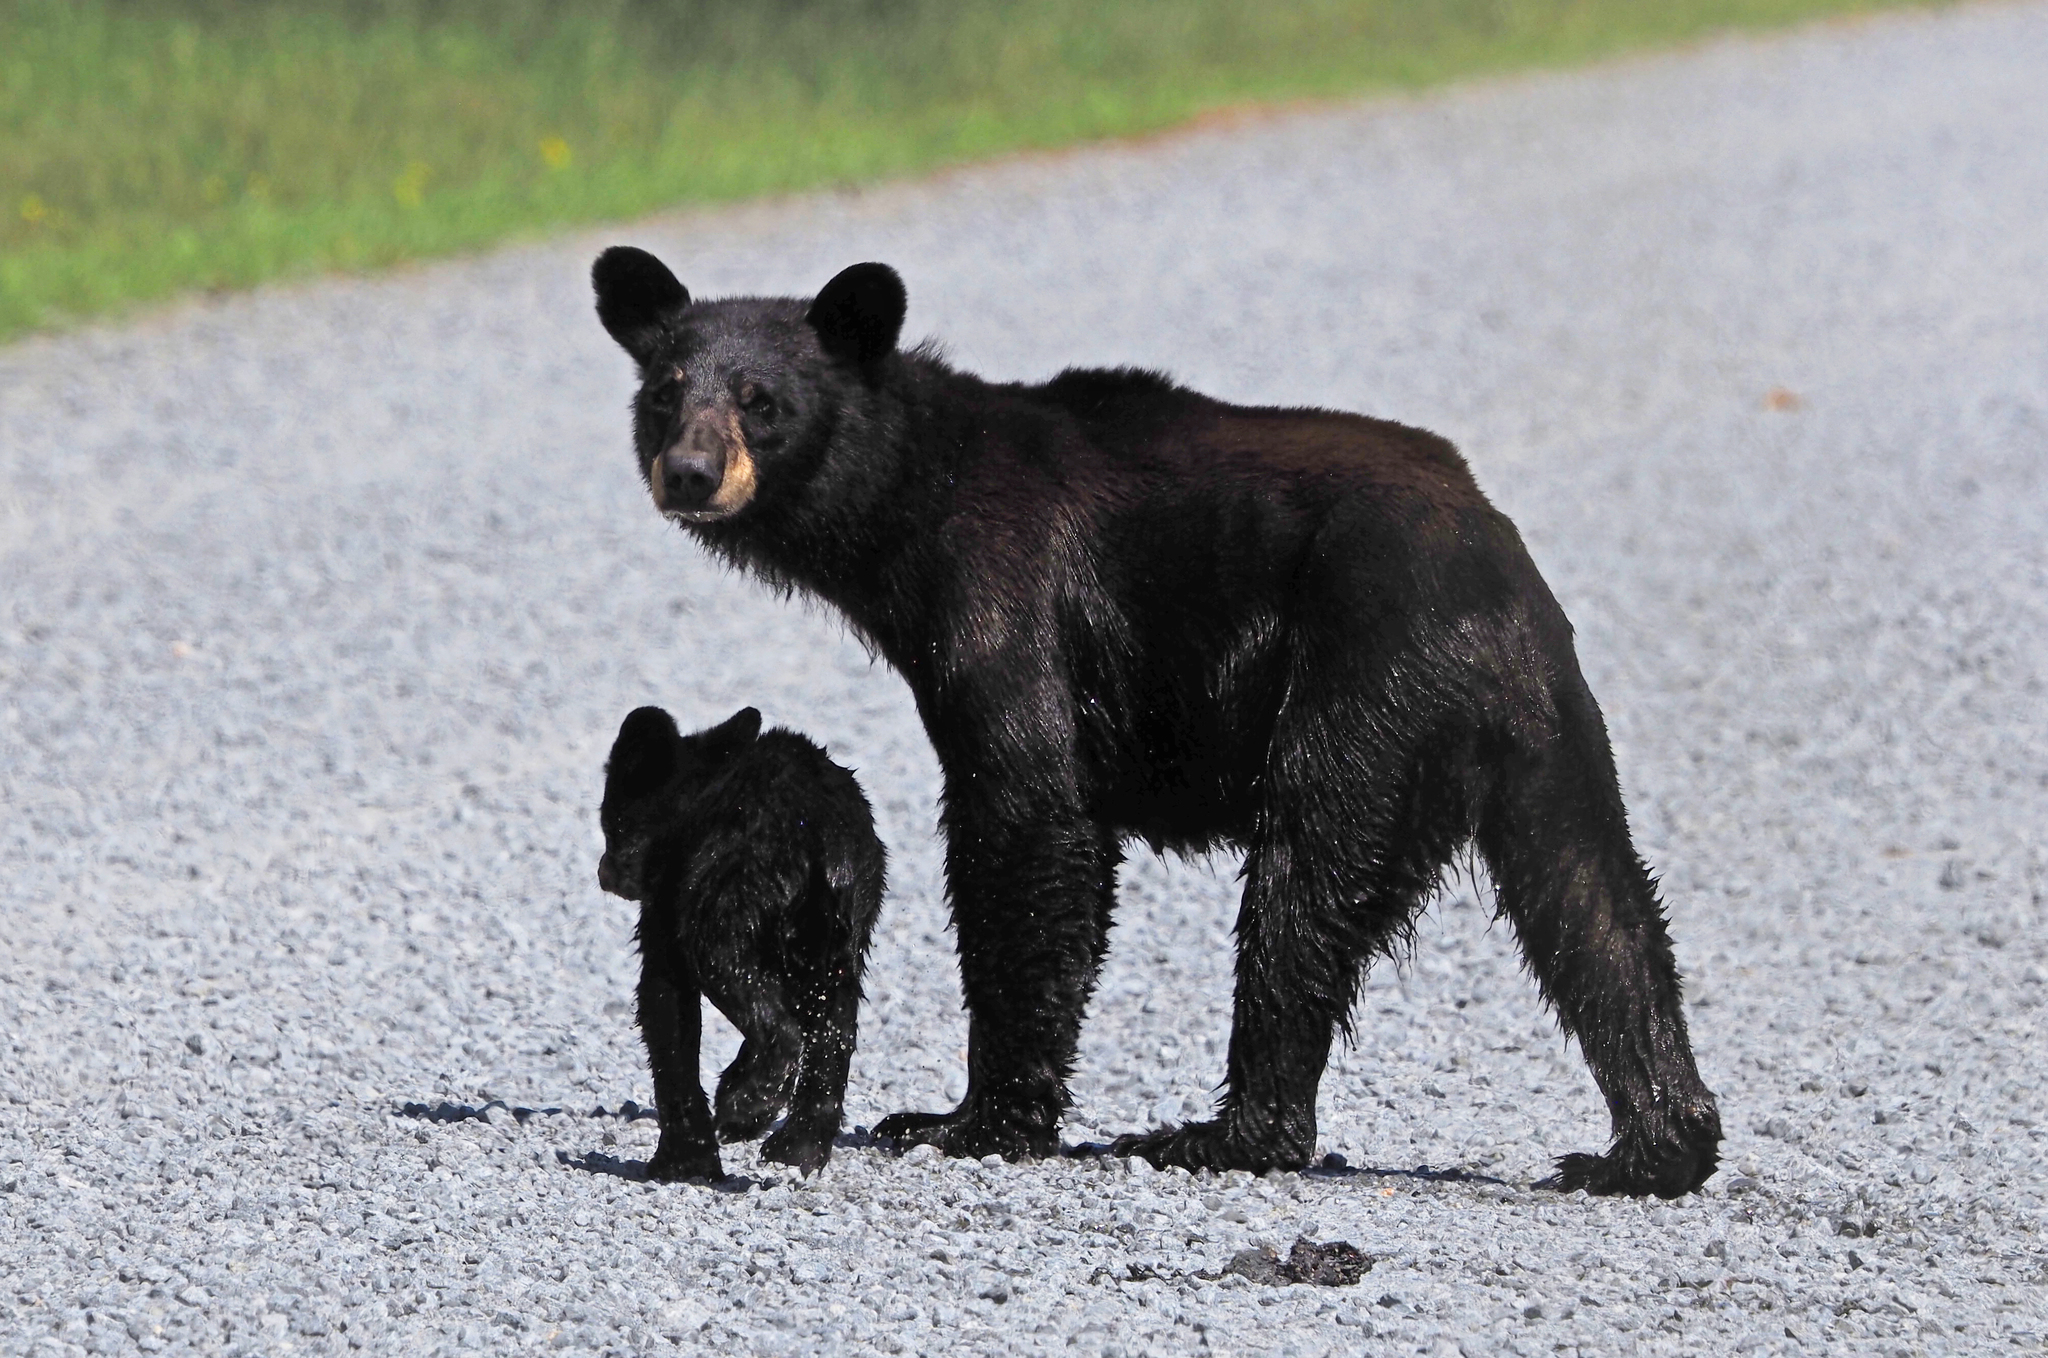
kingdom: Animalia
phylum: Chordata
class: Mammalia
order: Carnivora
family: Ursidae
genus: Ursus
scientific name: Ursus americanus
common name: American black bear
